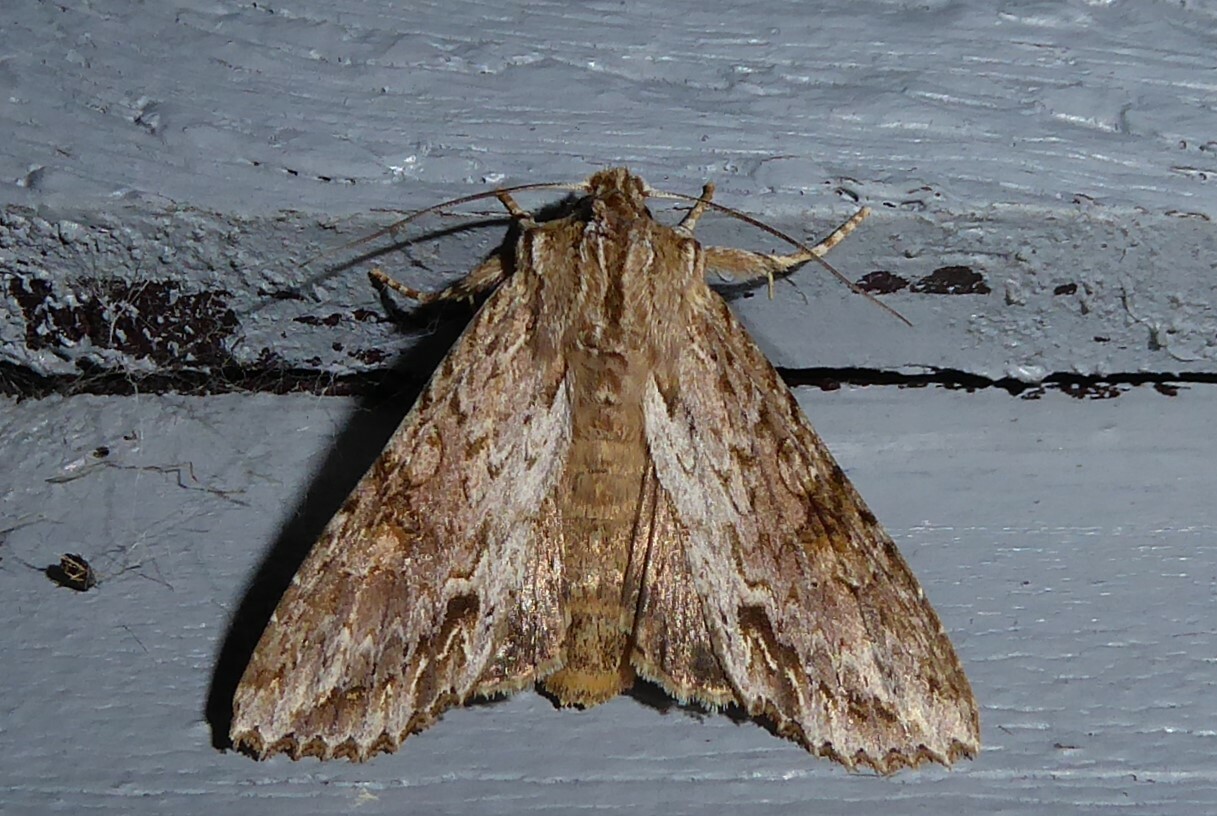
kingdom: Animalia
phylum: Arthropoda
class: Insecta
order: Lepidoptera
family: Noctuidae
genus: Ichneutica
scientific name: Ichneutica mollis
